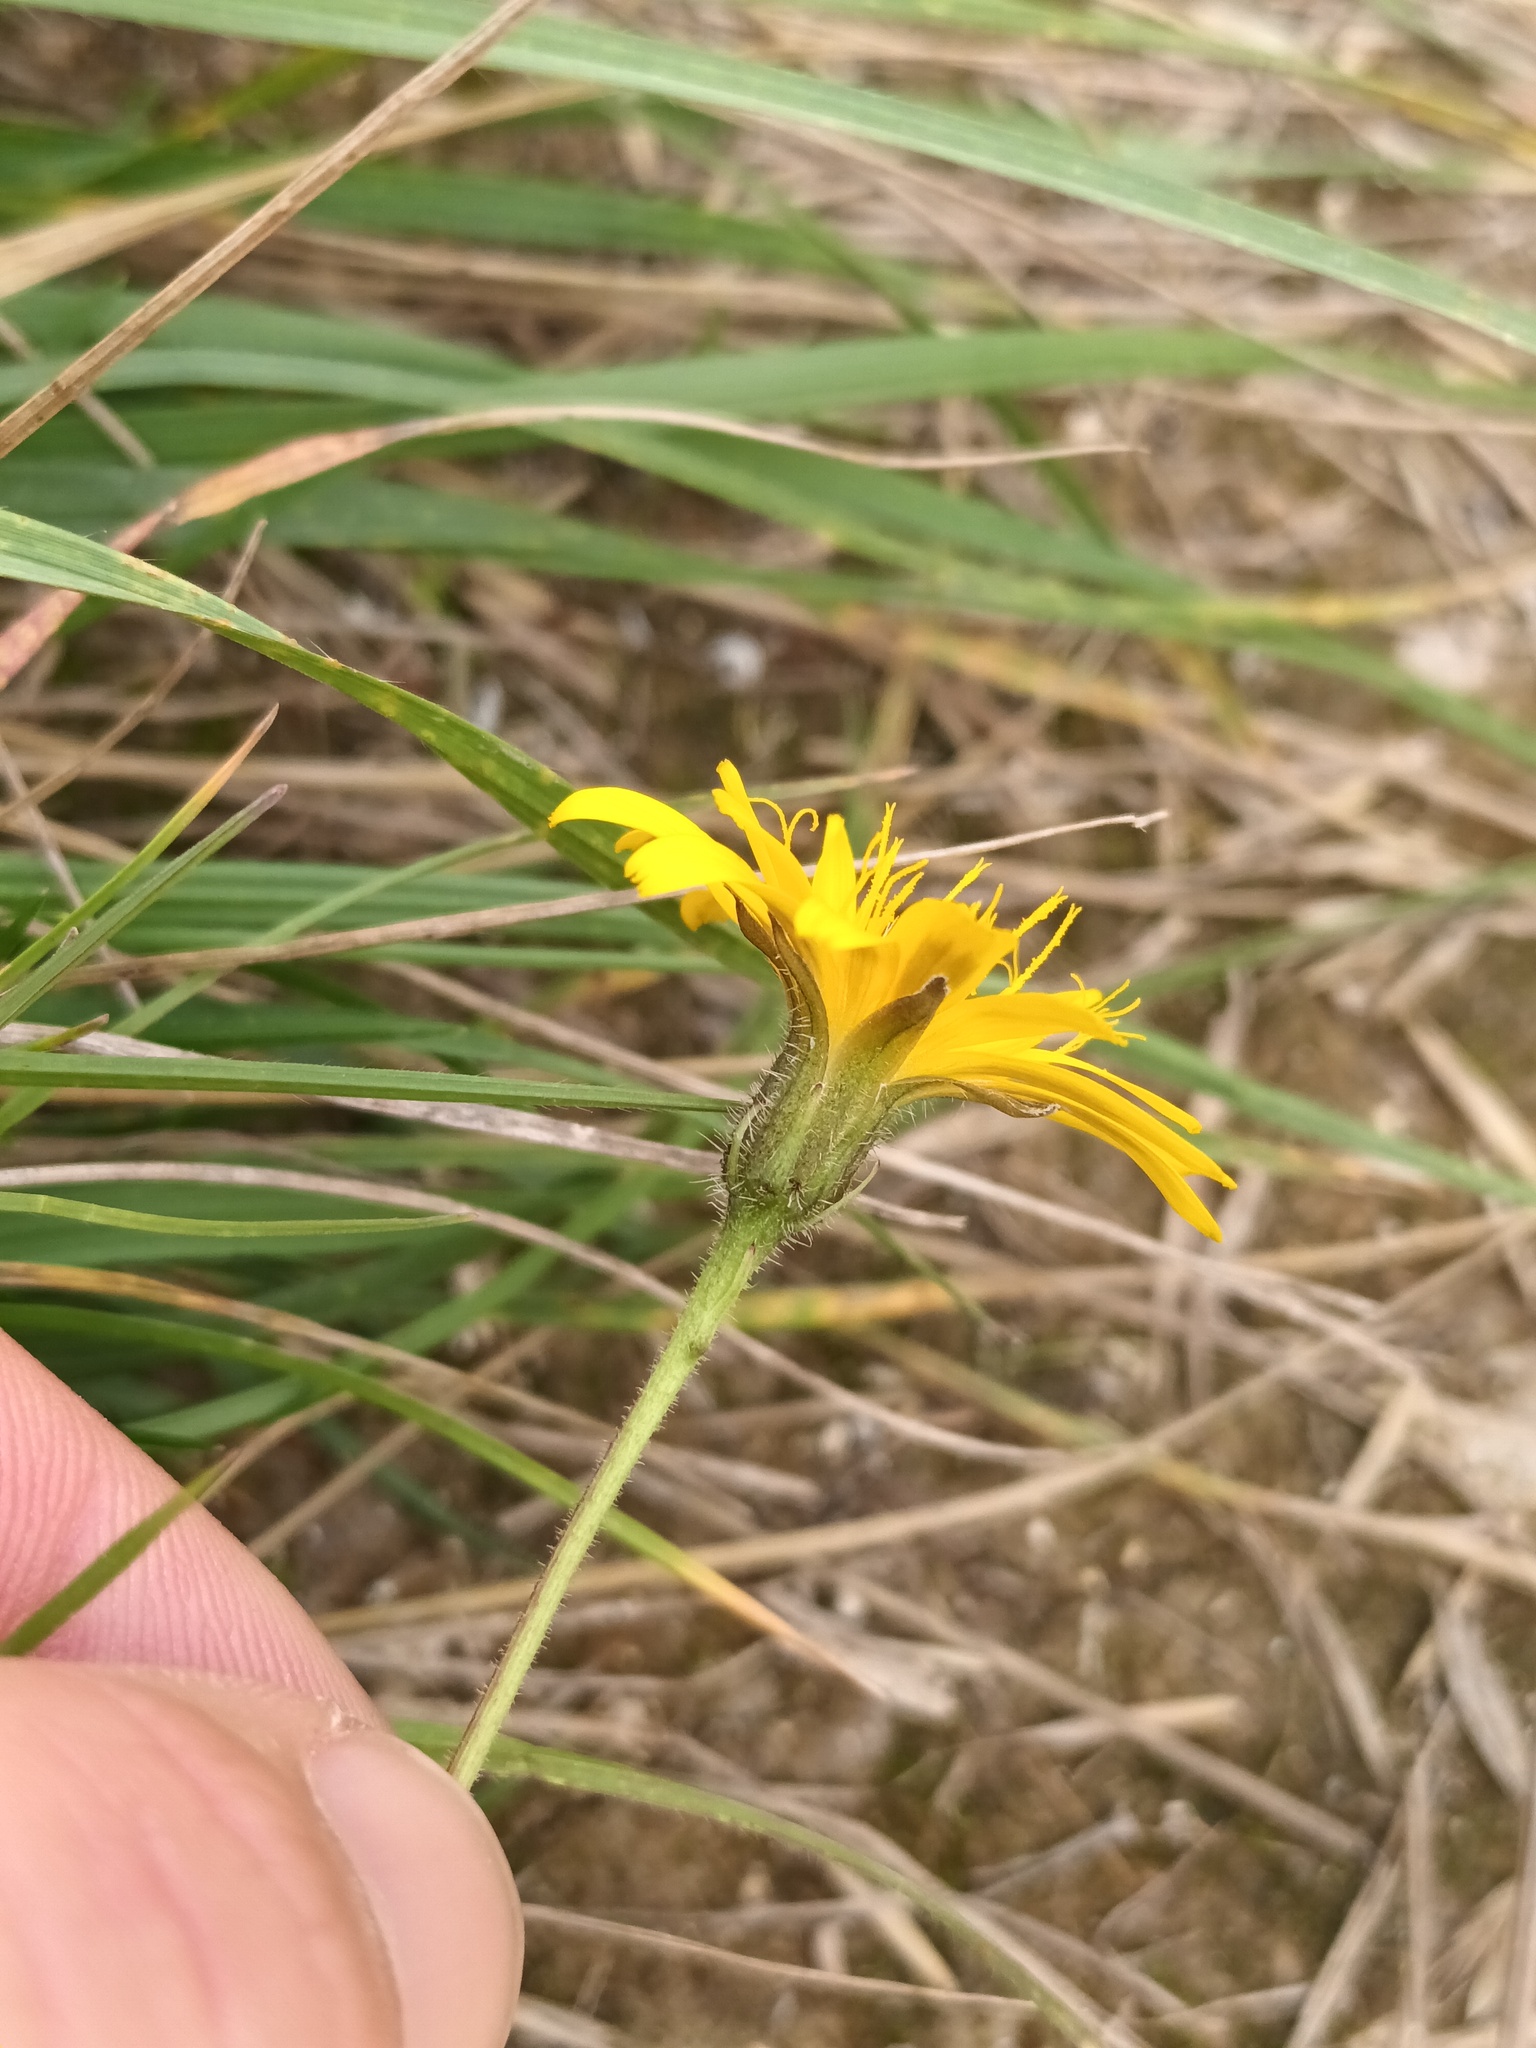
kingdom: Plantae
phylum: Tracheophyta
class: Magnoliopsida
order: Asterales
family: Asteraceae
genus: Hypochaeris
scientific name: Hypochaeris radicata
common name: Flatweed
